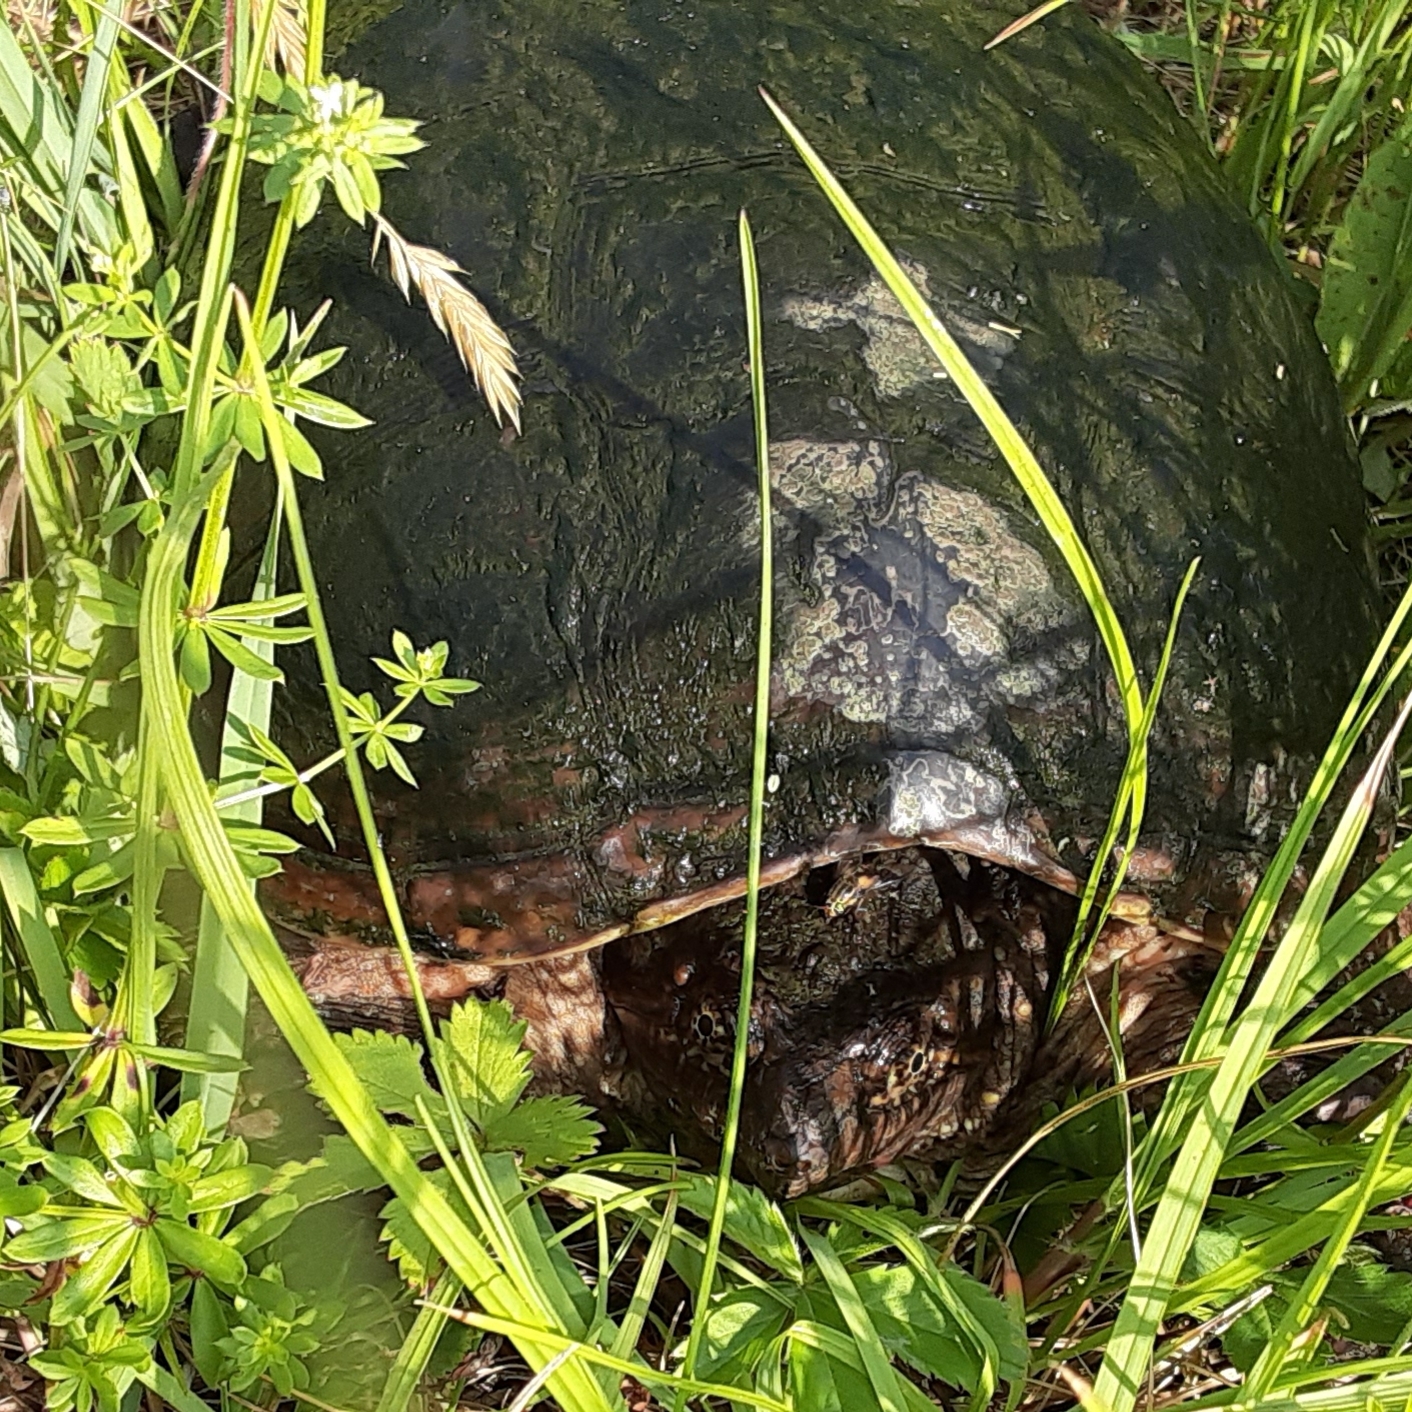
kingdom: Animalia
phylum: Chordata
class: Testudines
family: Chelydridae
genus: Chelydra
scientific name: Chelydra serpentina
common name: Common snapping turtle
